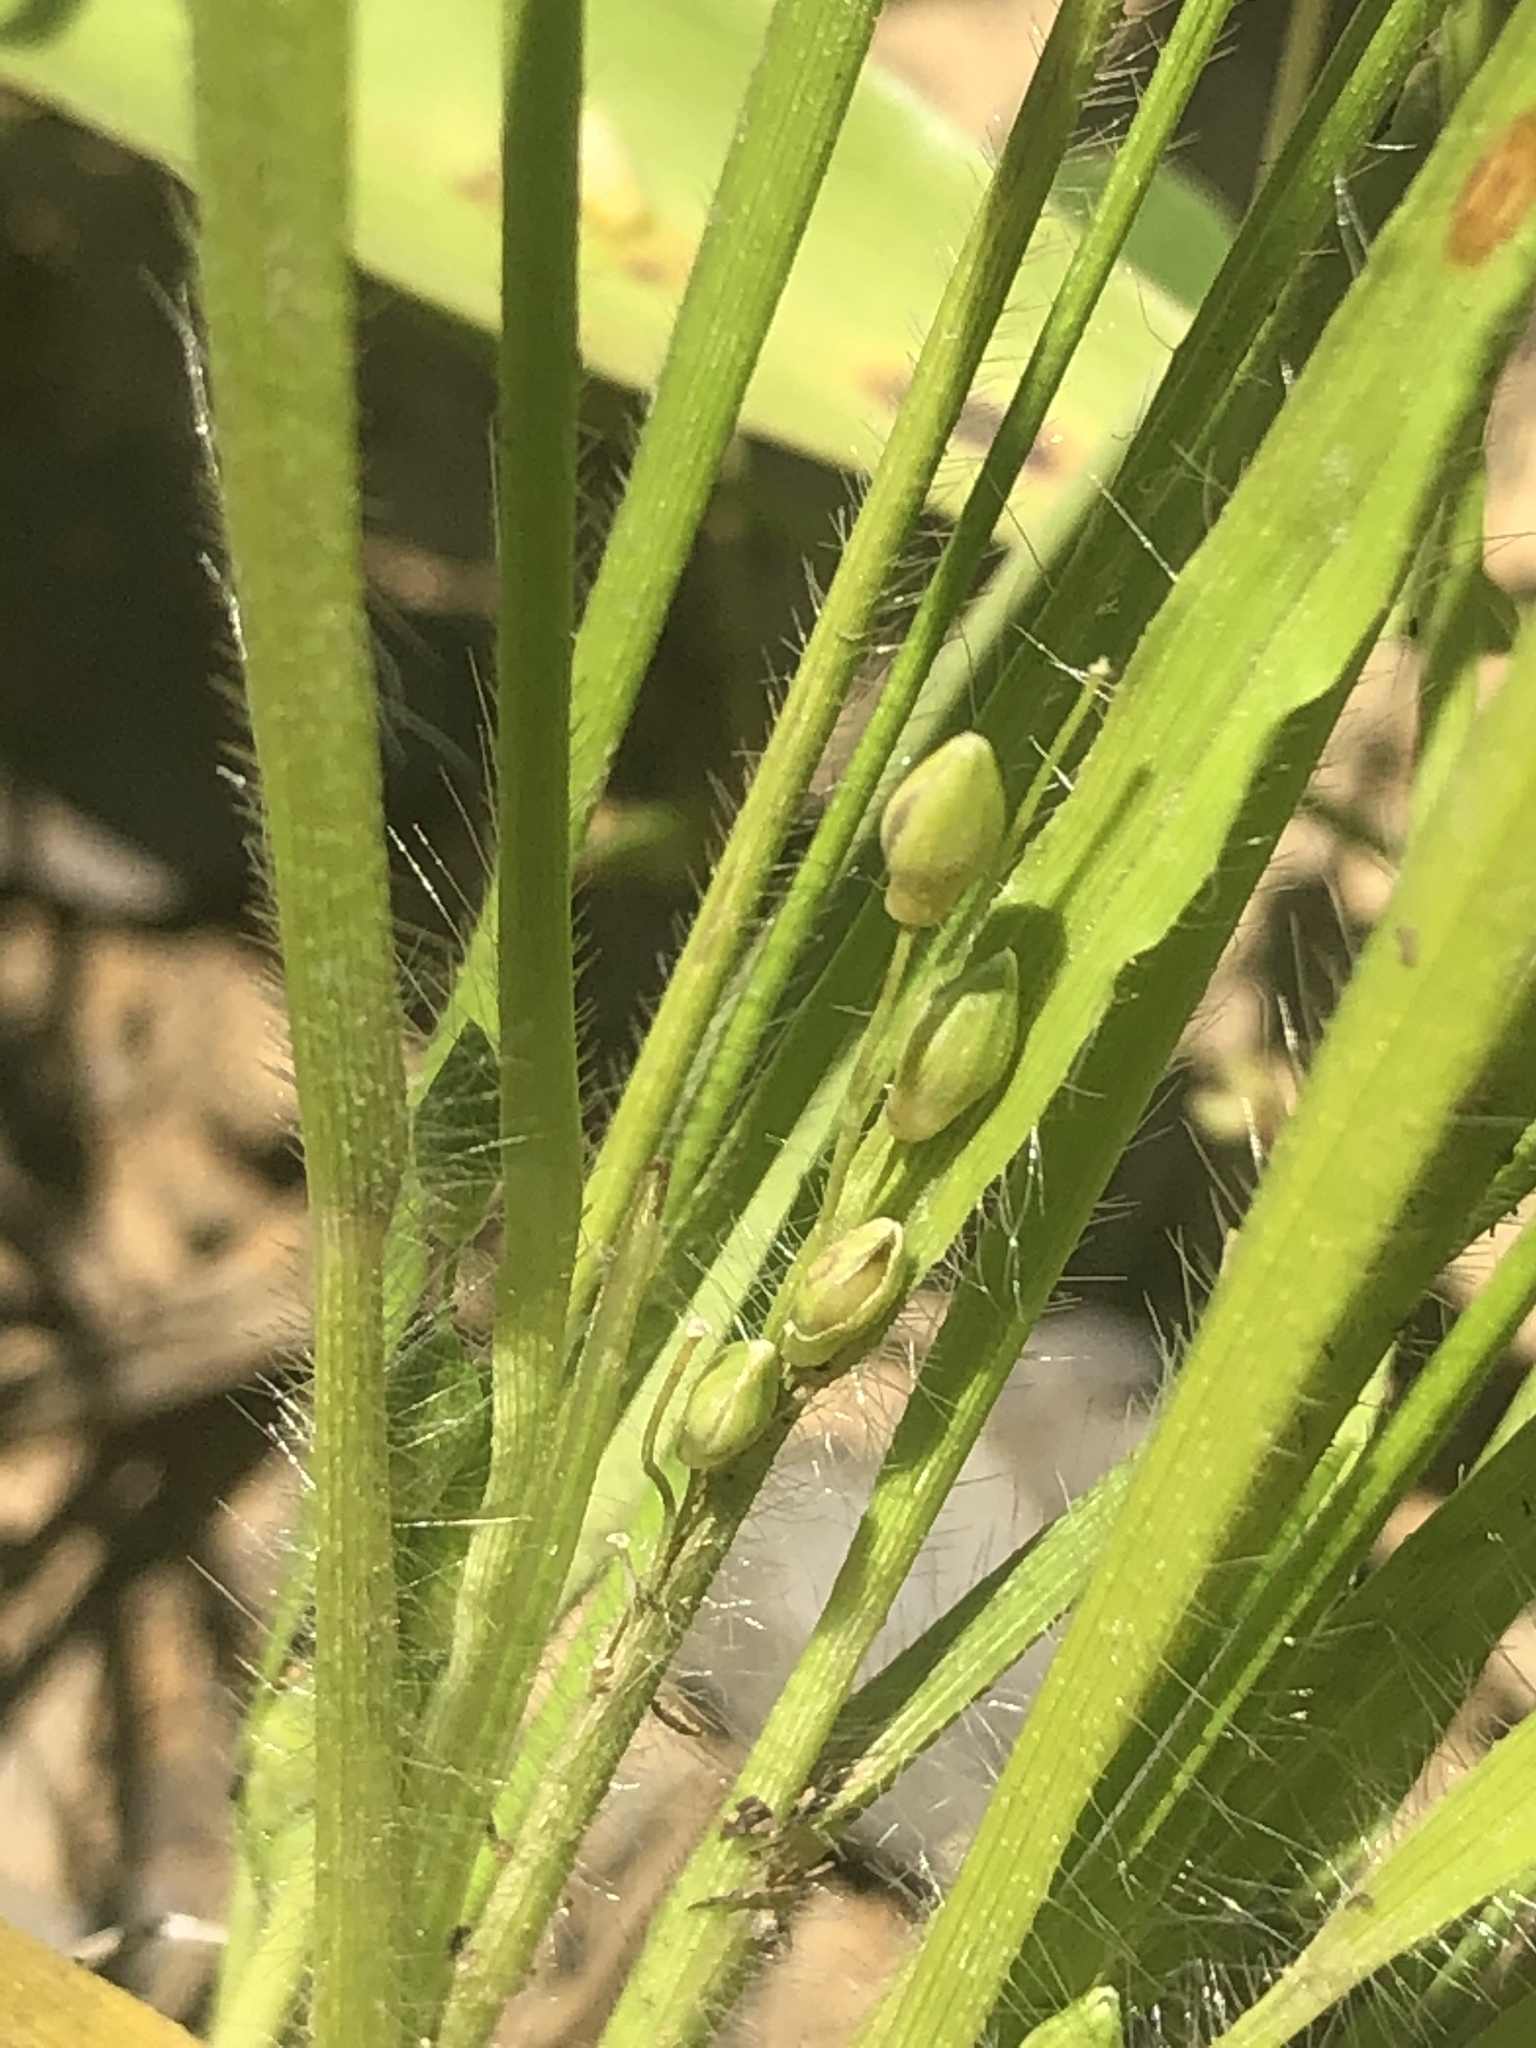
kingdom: Plantae
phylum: Tracheophyta
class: Liliopsida
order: Poales
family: Poaceae
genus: Dichanthelium
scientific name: Dichanthelium depauperatum
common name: Depauperate panicgrass
